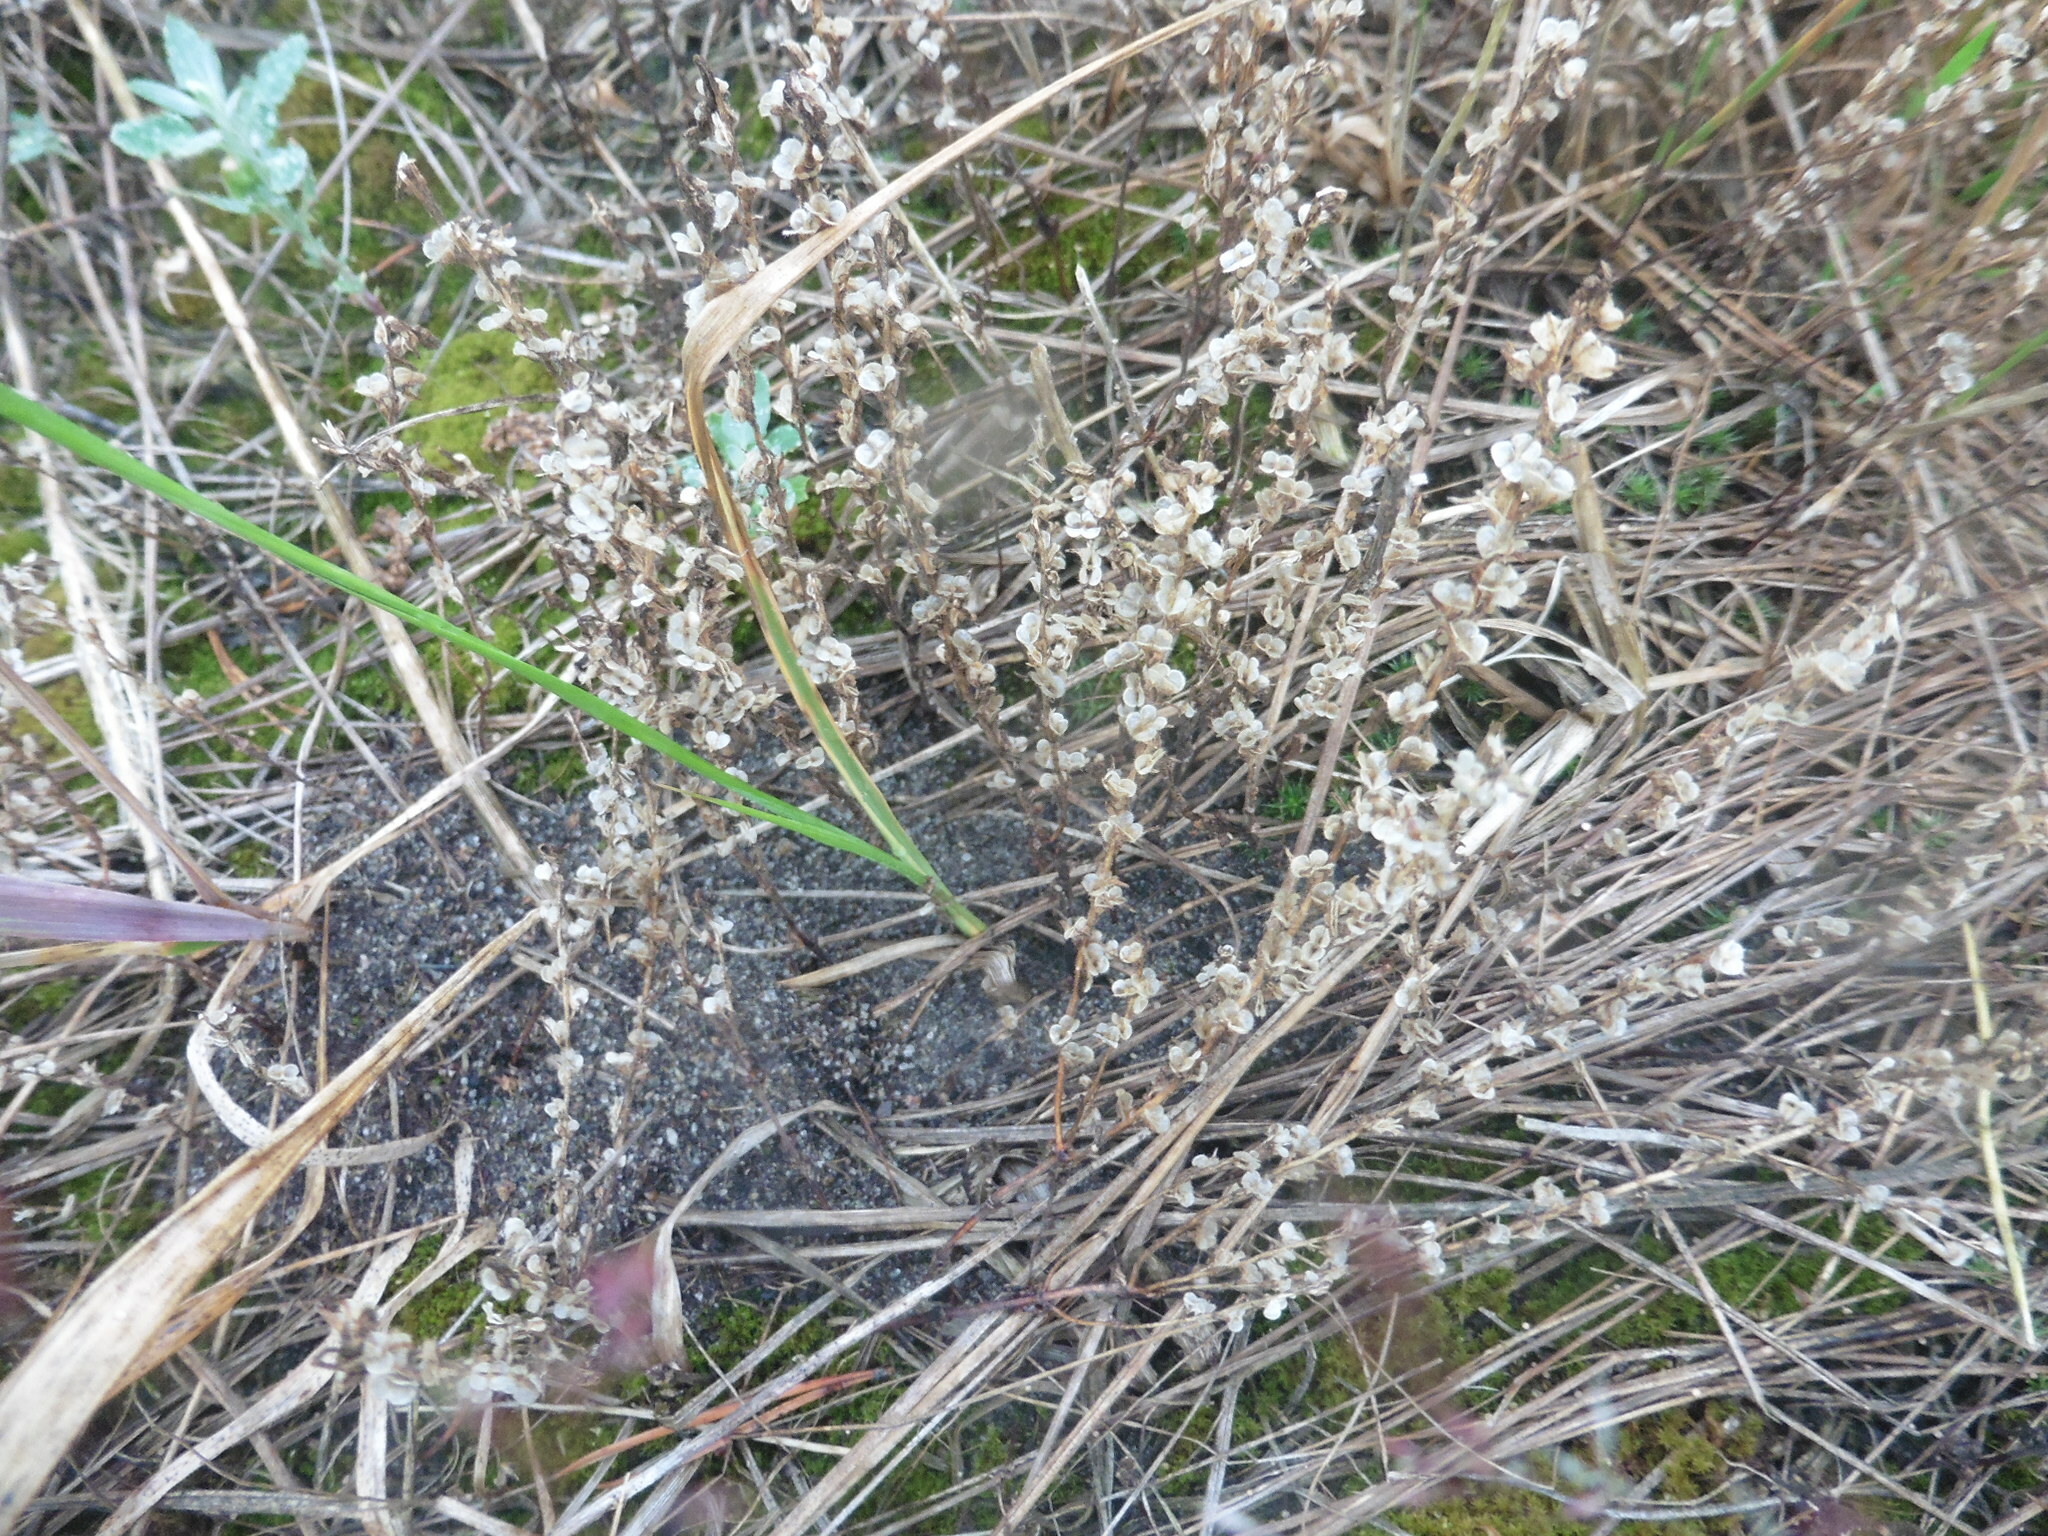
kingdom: Plantae
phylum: Tracheophyta
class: Magnoliopsida
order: Lamiales
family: Plantaginaceae
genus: Veronica
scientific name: Veronica verna
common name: Spring speedwell
